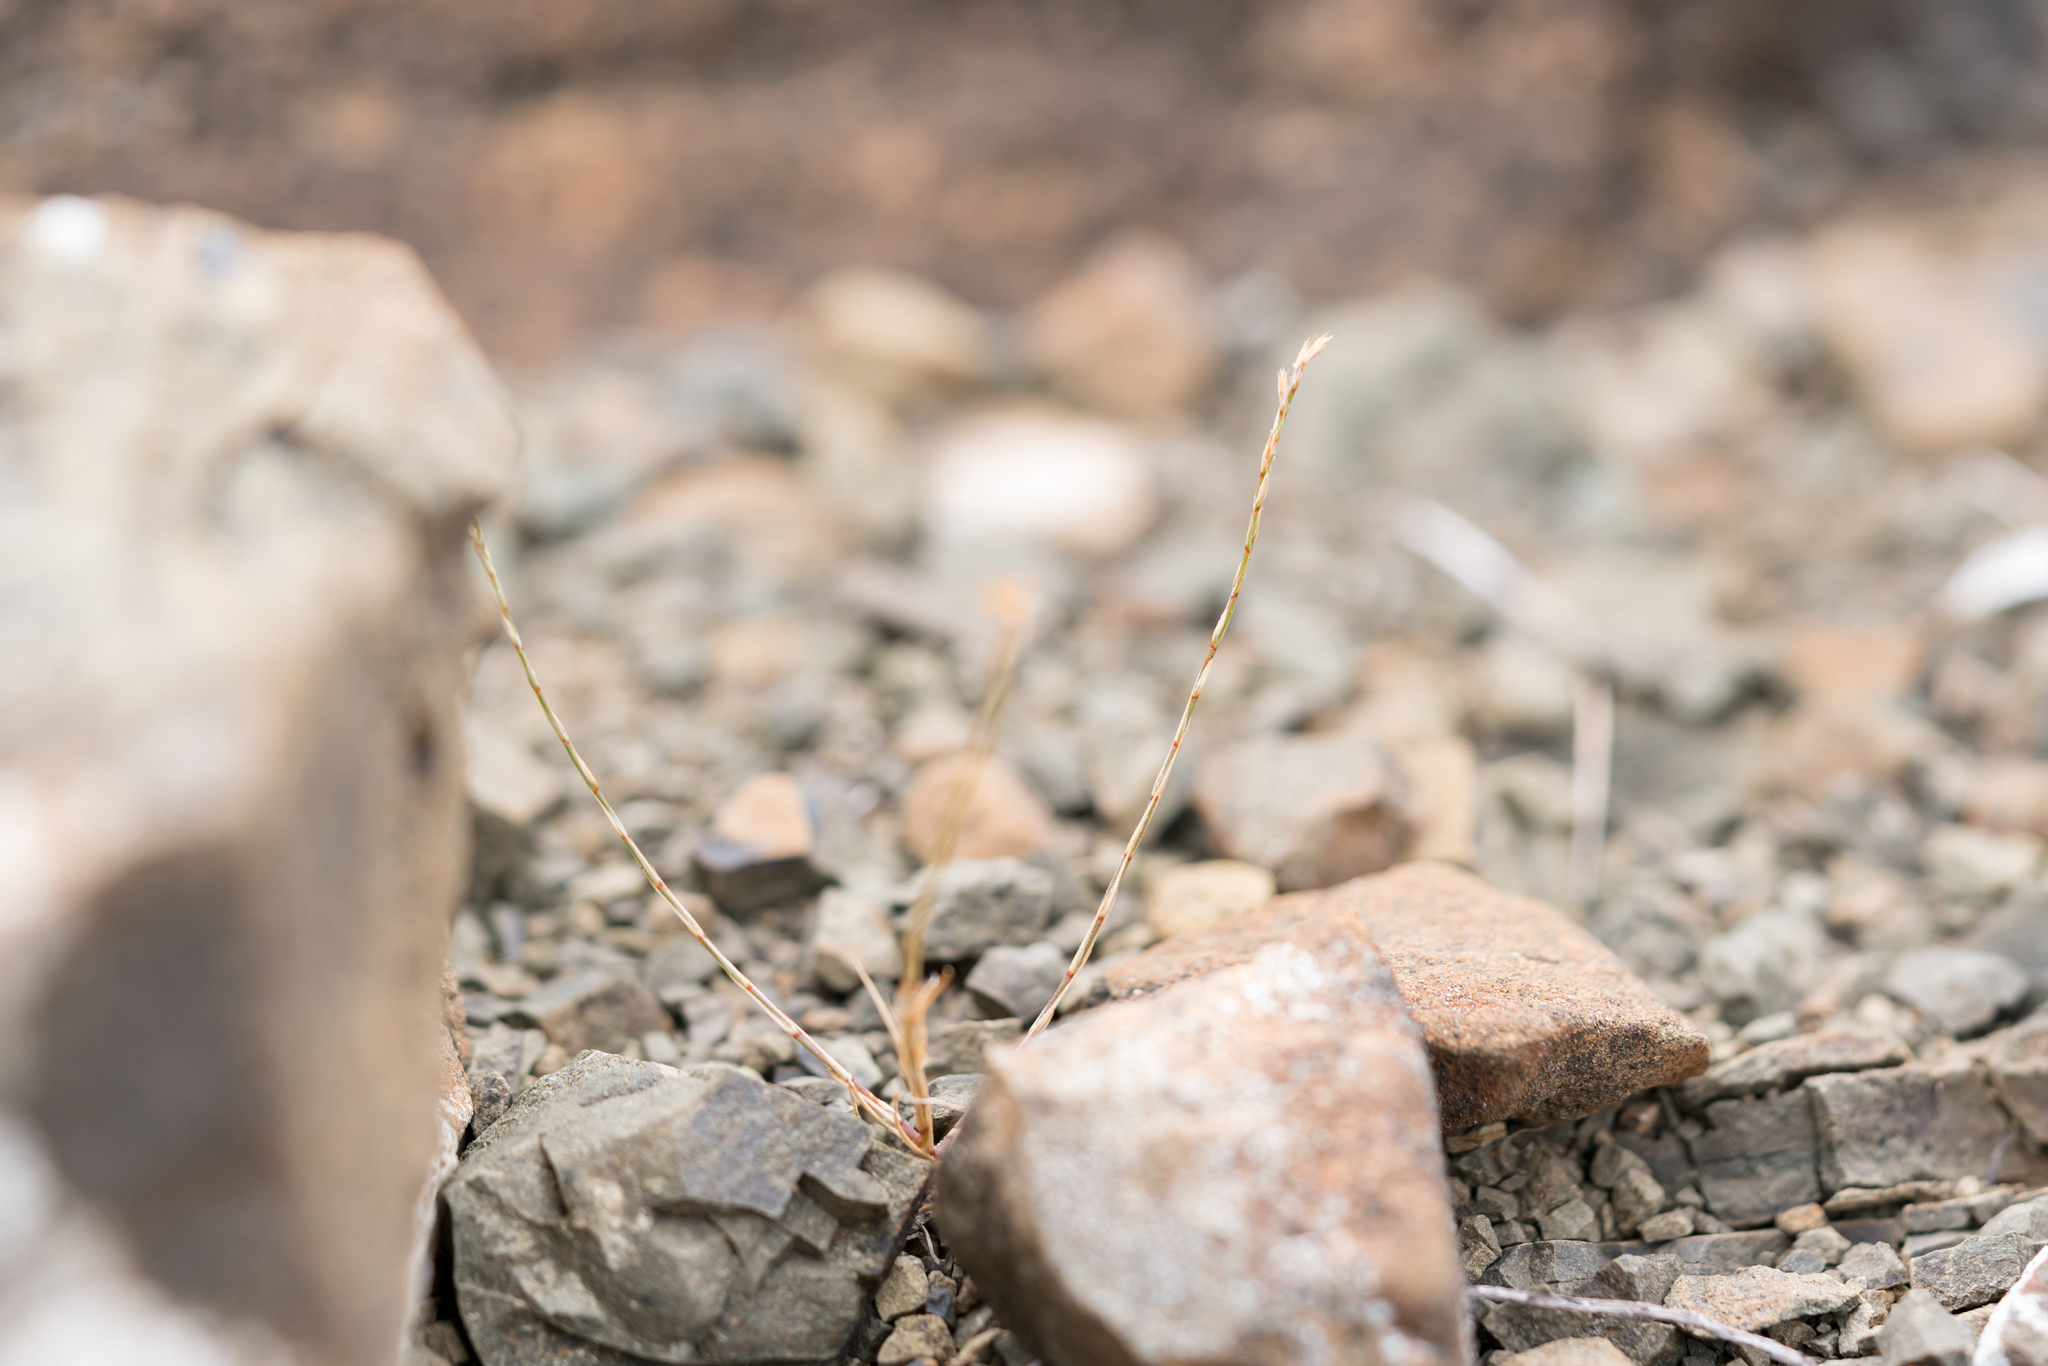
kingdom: Plantae
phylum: Tracheophyta
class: Magnoliopsida
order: Caryophyllales
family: Caryophyllaceae
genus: Bufonia
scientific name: Bufonia ophiolithica
